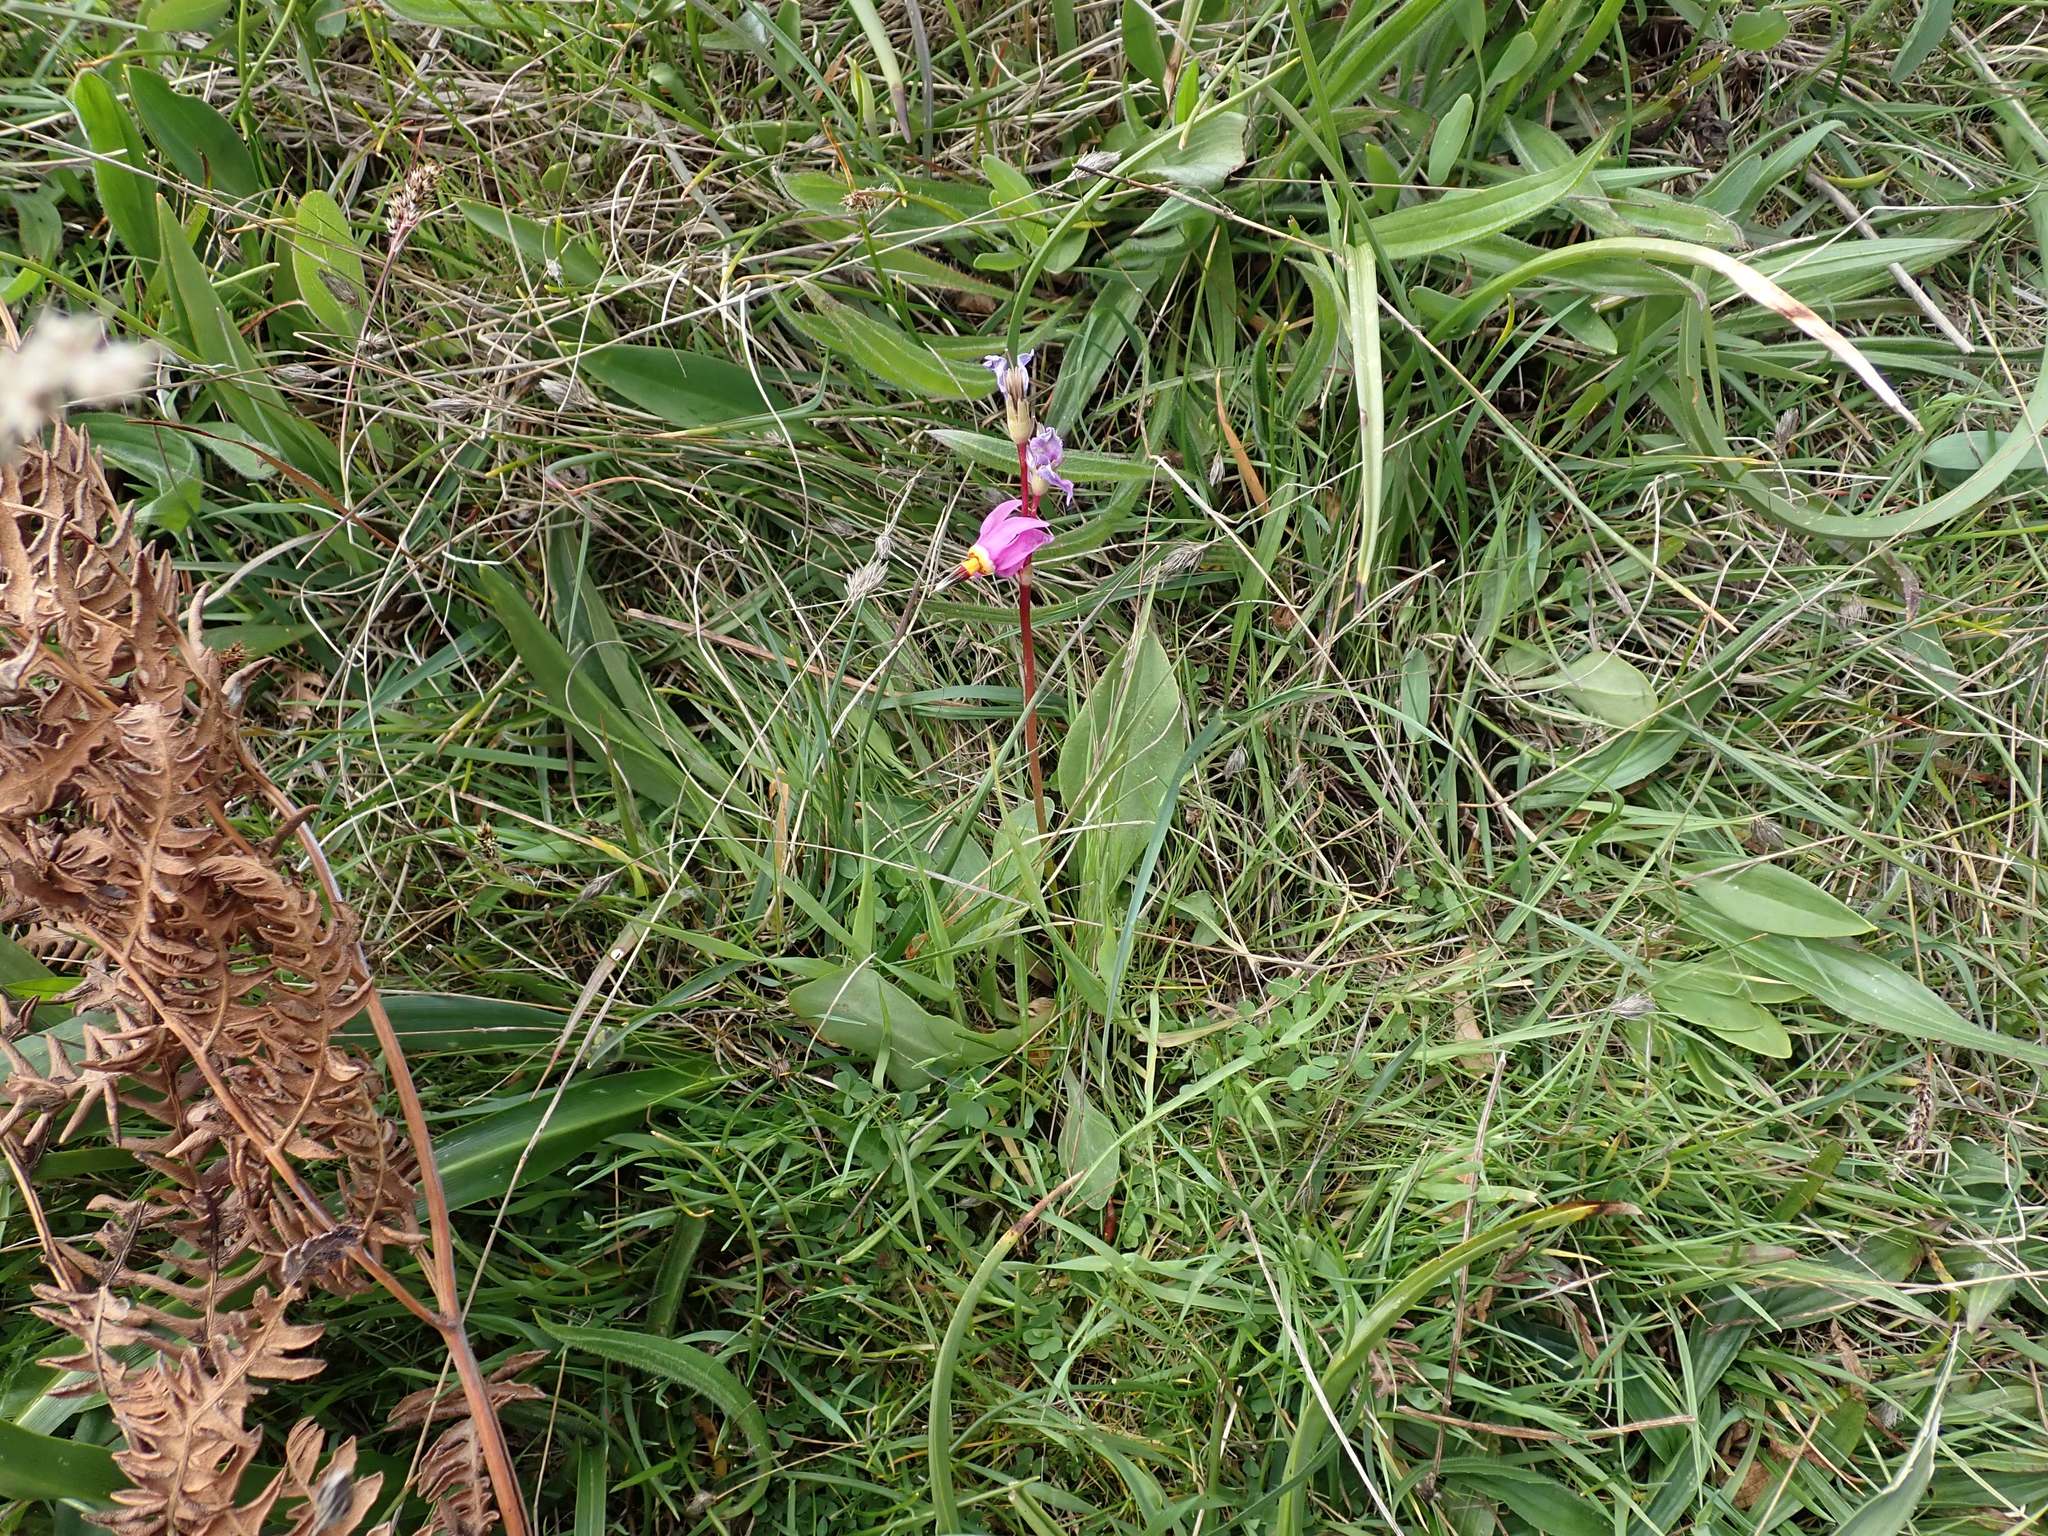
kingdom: Plantae
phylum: Tracheophyta
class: Magnoliopsida
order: Ericales
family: Primulaceae
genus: Dodecatheon
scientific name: Dodecatheon pulchellum
